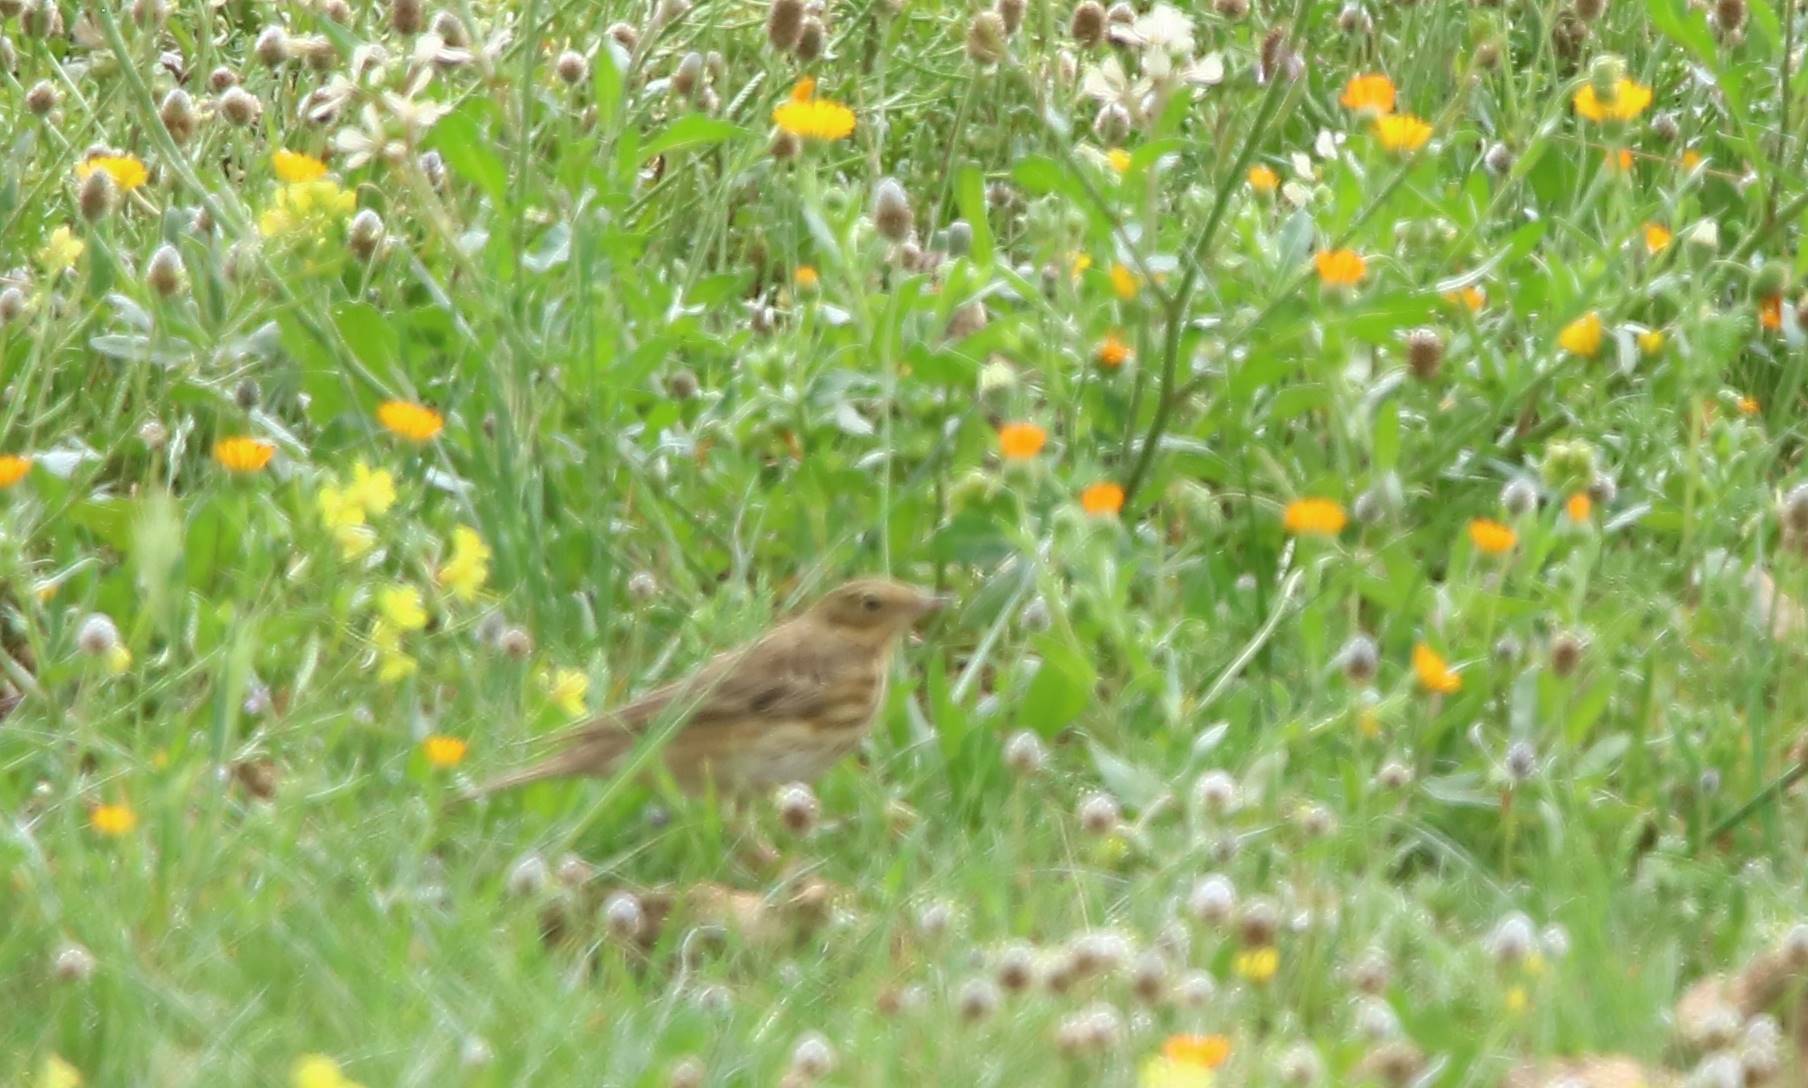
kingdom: Animalia
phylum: Chordata
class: Aves
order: Passeriformes
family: Motacillidae
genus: Anthus
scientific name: Anthus pratensis
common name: Meadow pipit
